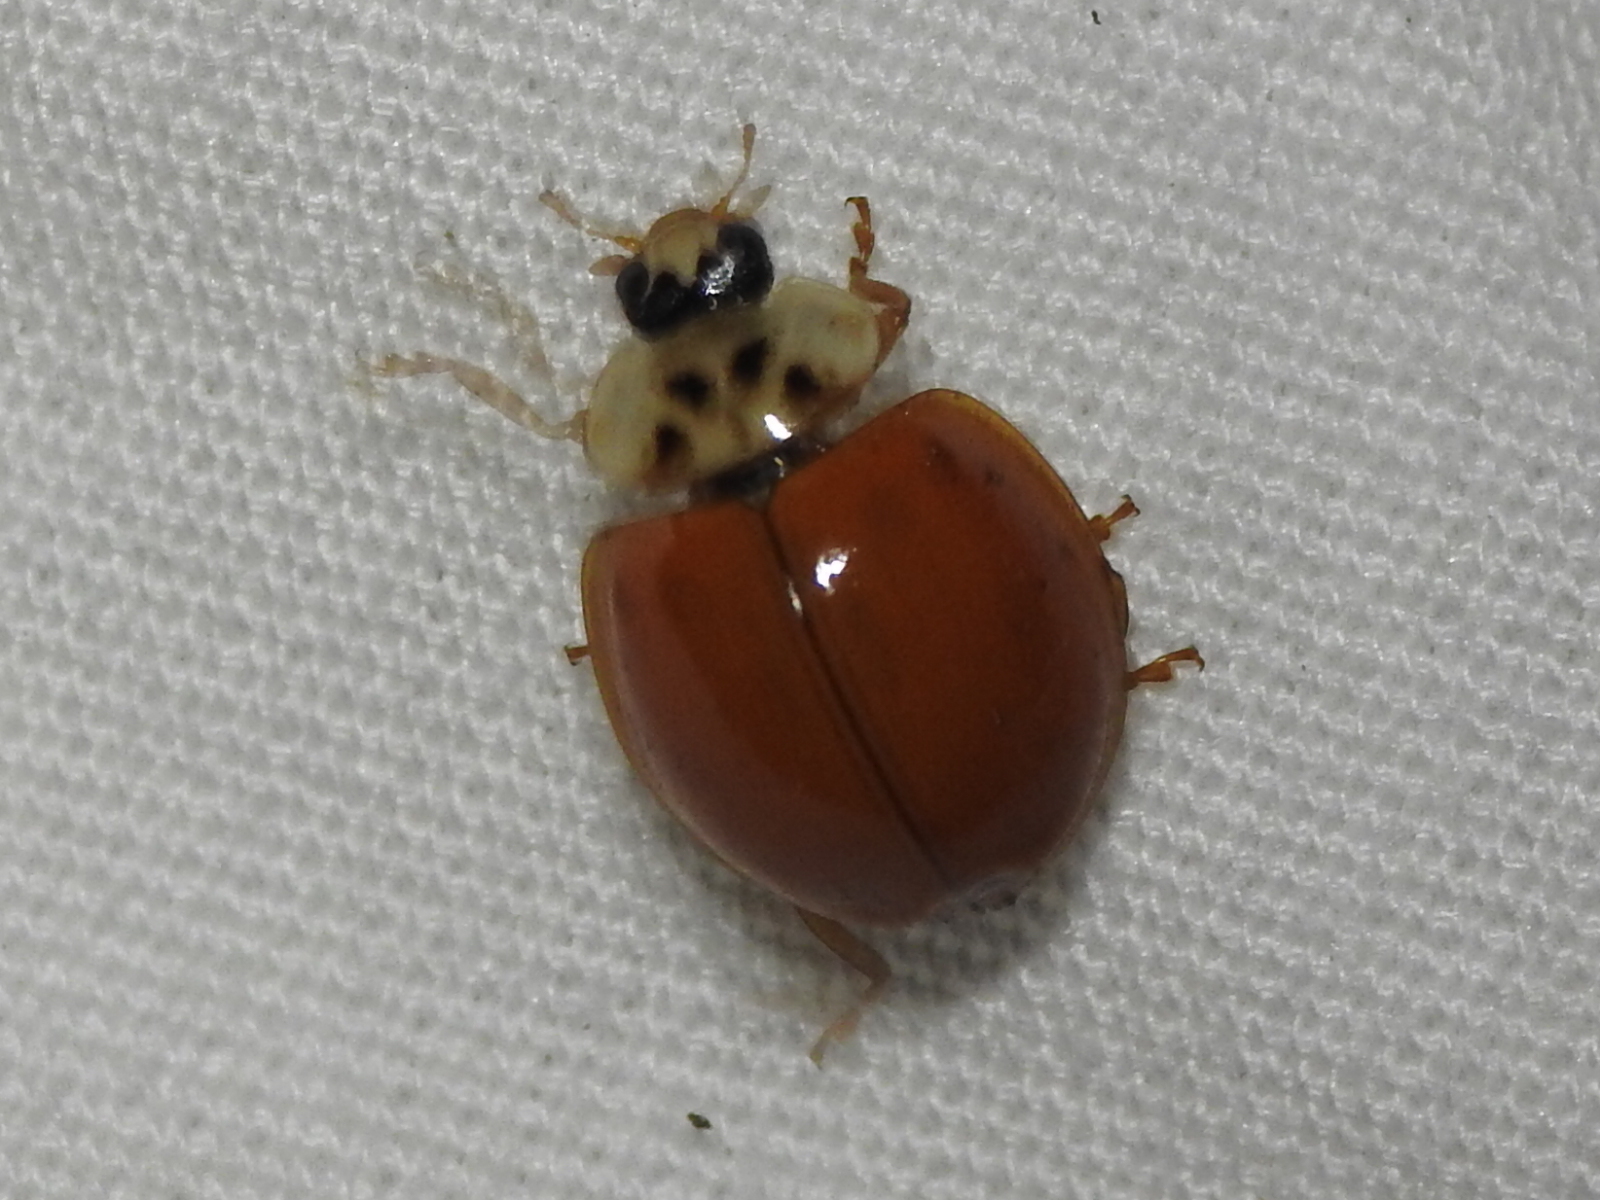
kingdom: Animalia
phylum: Arthropoda
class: Insecta
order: Coleoptera
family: Coccinellidae
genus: Harmonia
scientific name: Harmonia axyridis
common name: Harlequin ladybird
